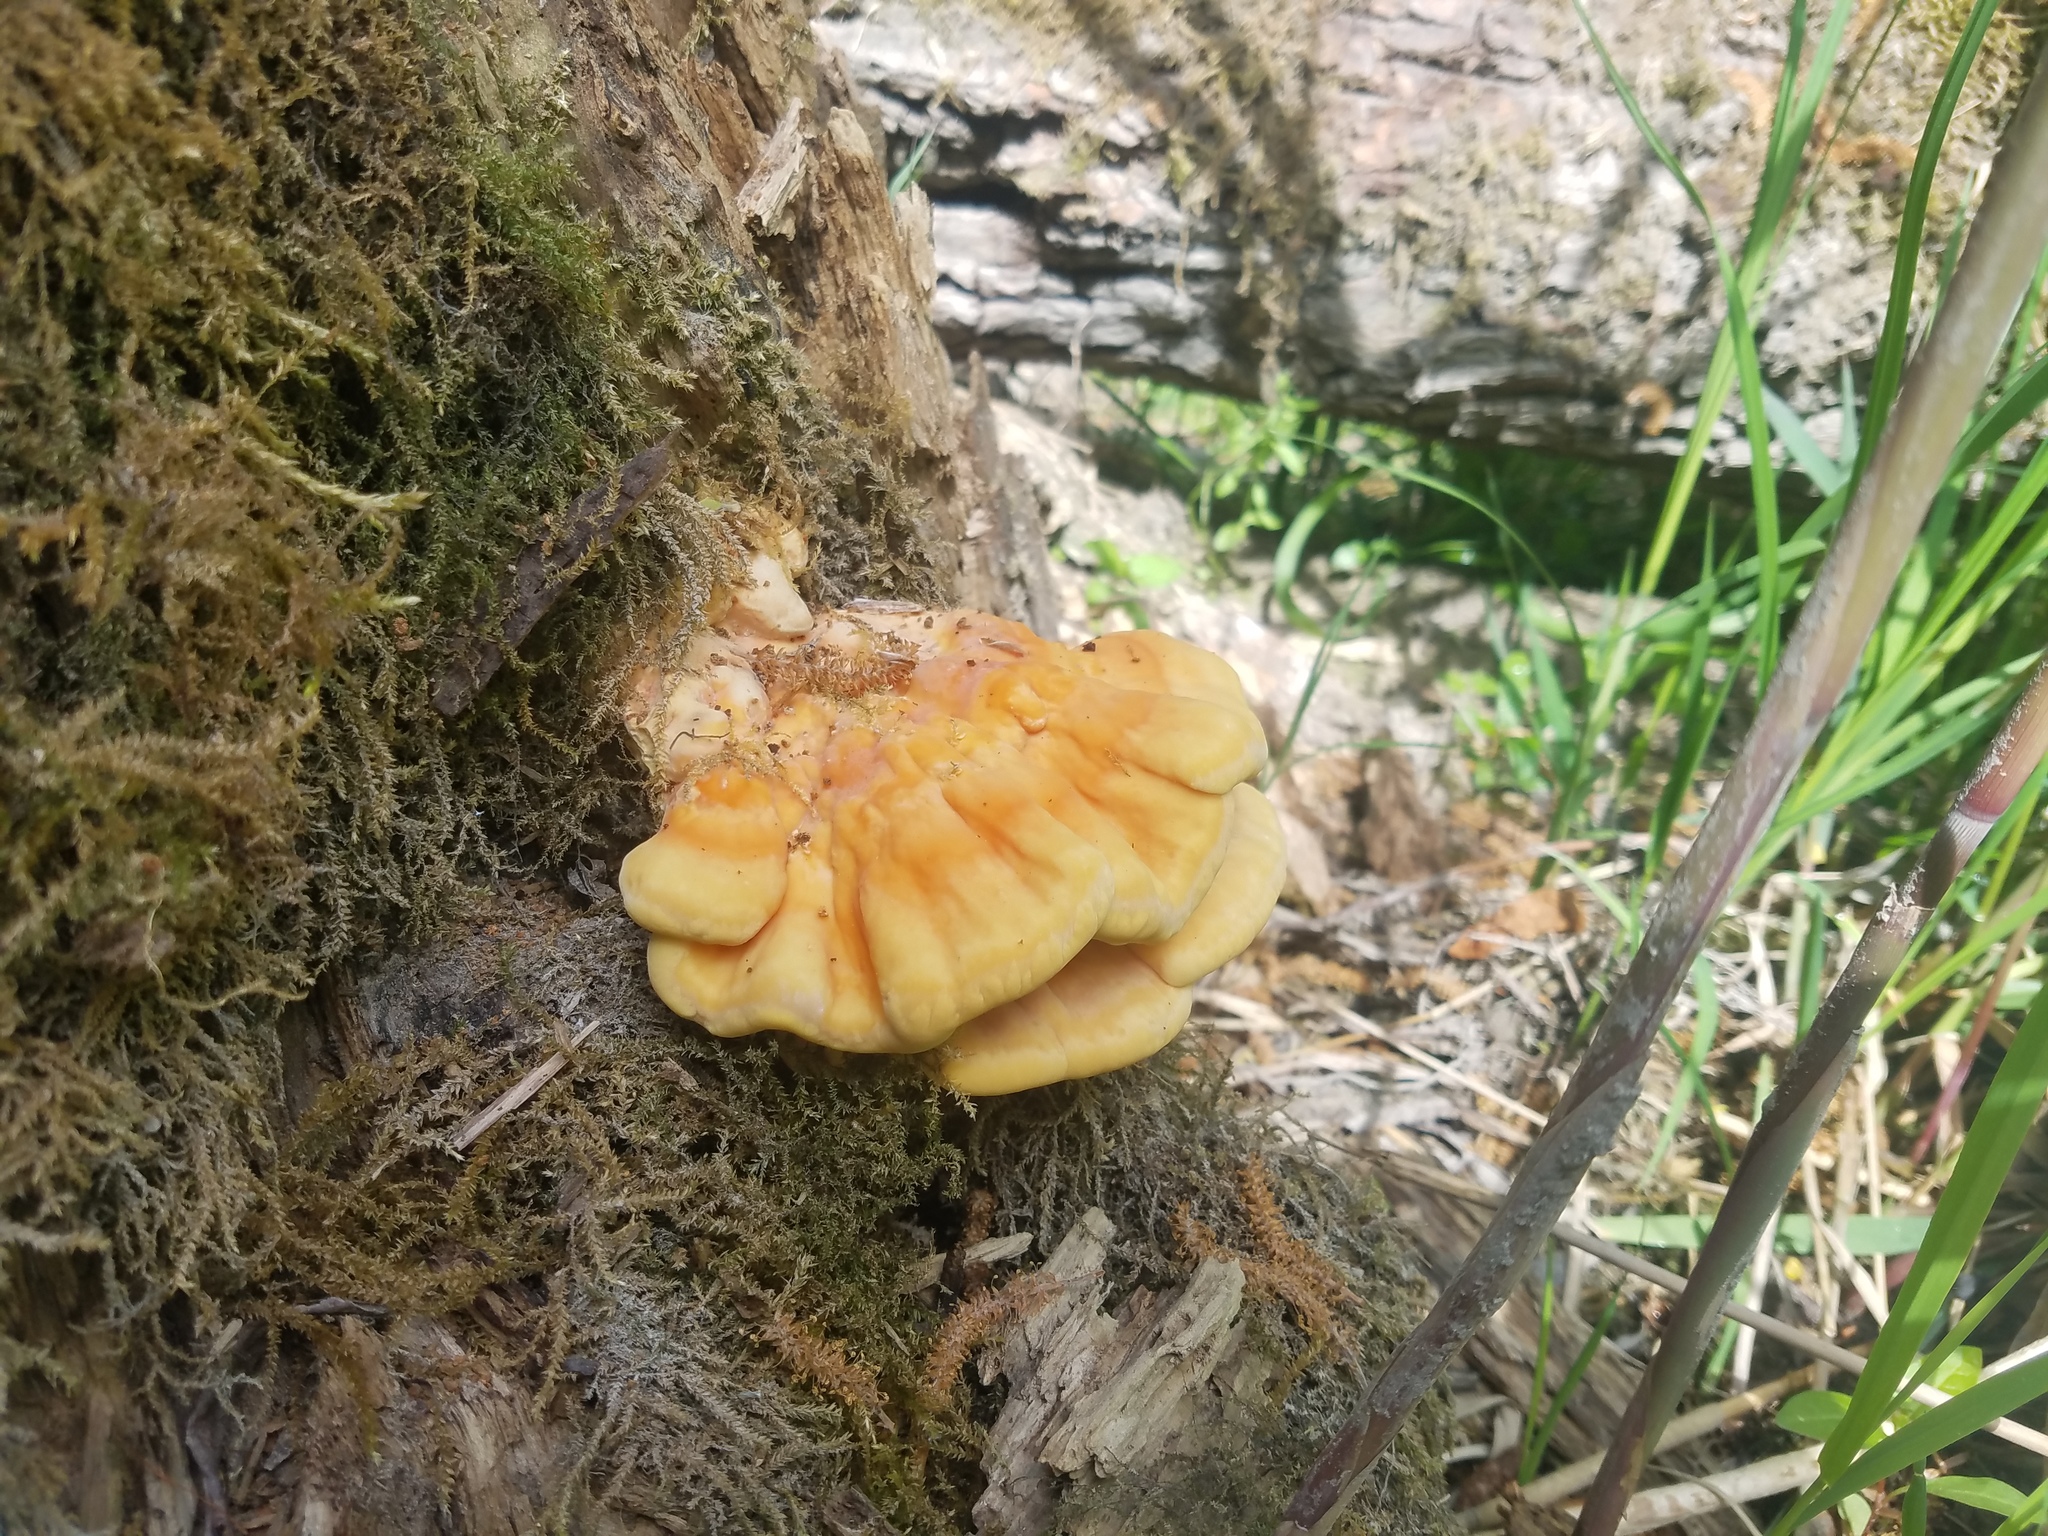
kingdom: Fungi
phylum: Basidiomycota
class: Agaricomycetes
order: Polyporales
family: Laetiporaceae
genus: Laetiporus
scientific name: Laetiporus sulphureus
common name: Chicken of the woods
